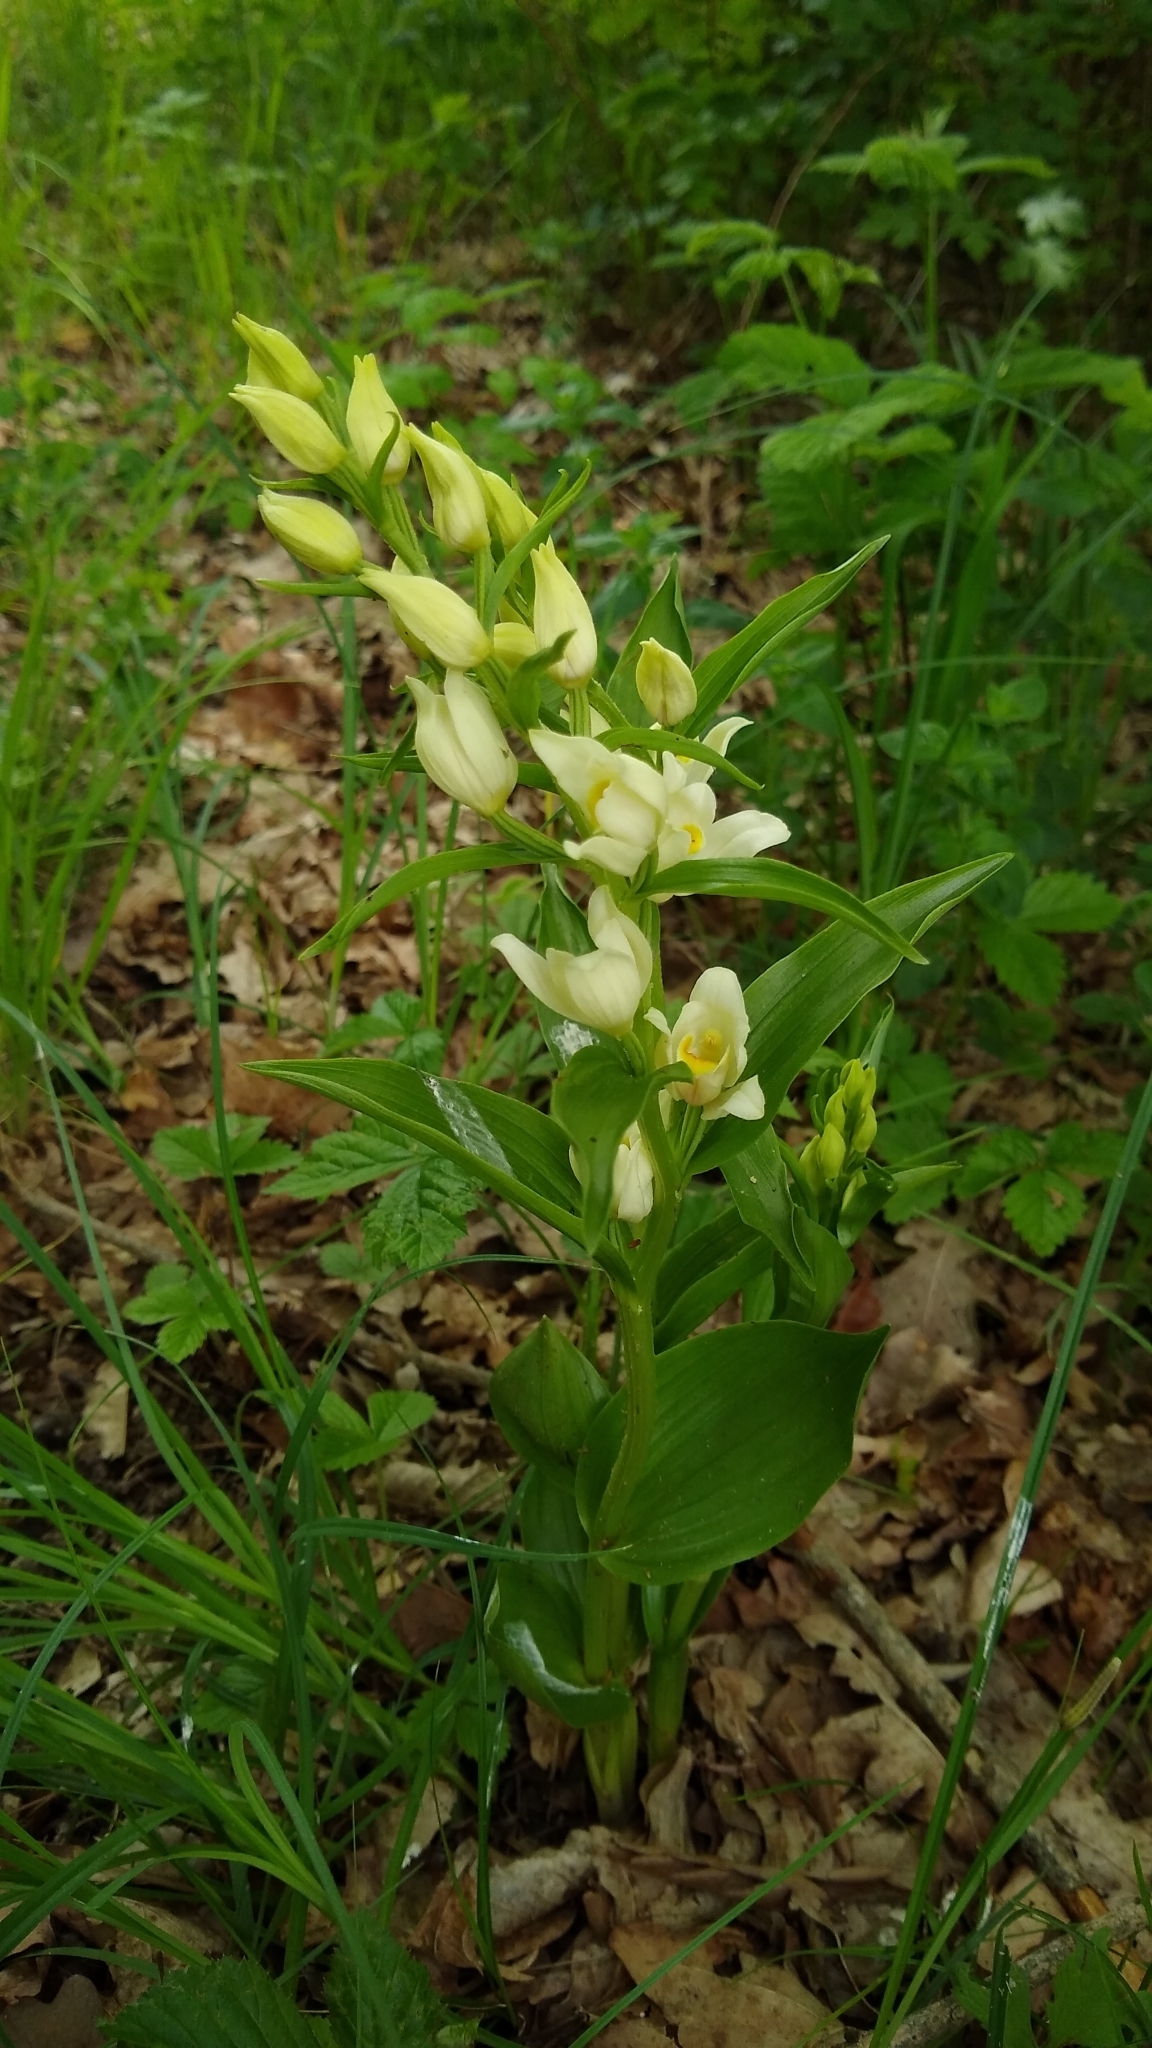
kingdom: Plantae
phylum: Tracheophyta
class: Liliopsida
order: Asparagales
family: Orchidaceae
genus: Cephalanthera
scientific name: Cephalanthera damasonium
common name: White helleborine
